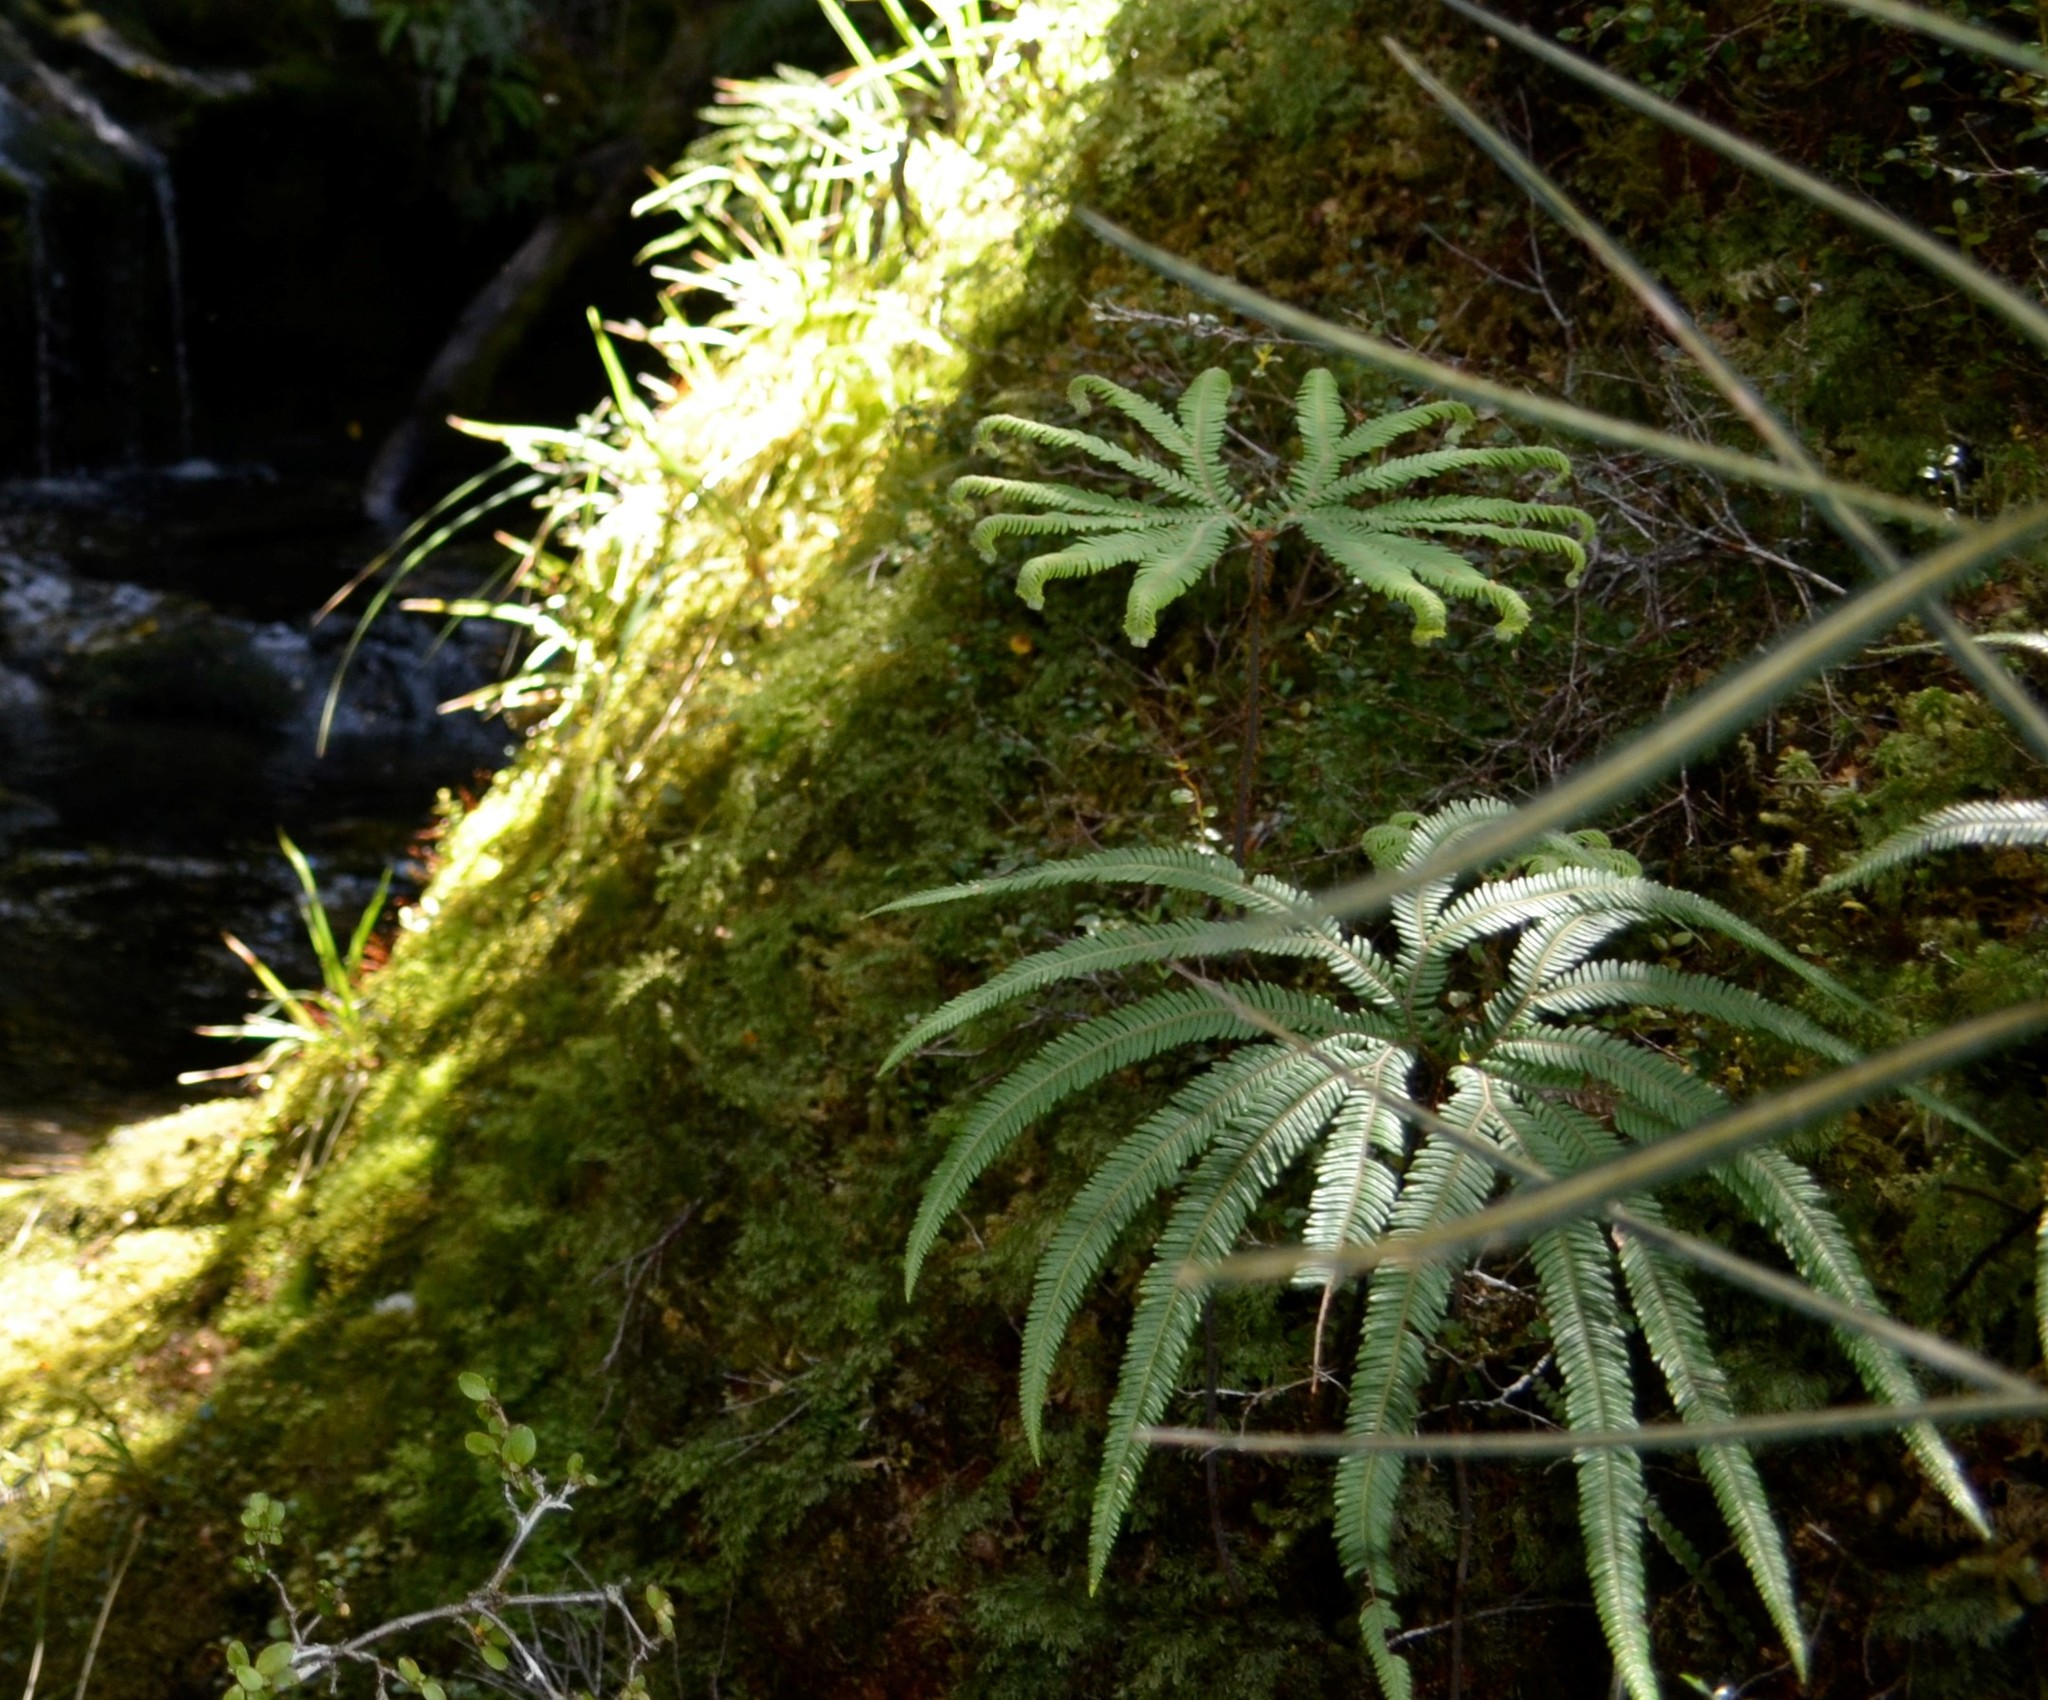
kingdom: Plantae
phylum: Tracheophyta
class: Polypodiopsida
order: Gleicheniales
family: Gleicheniaceae
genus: Sticherus
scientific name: Sticherus cunninghamii
